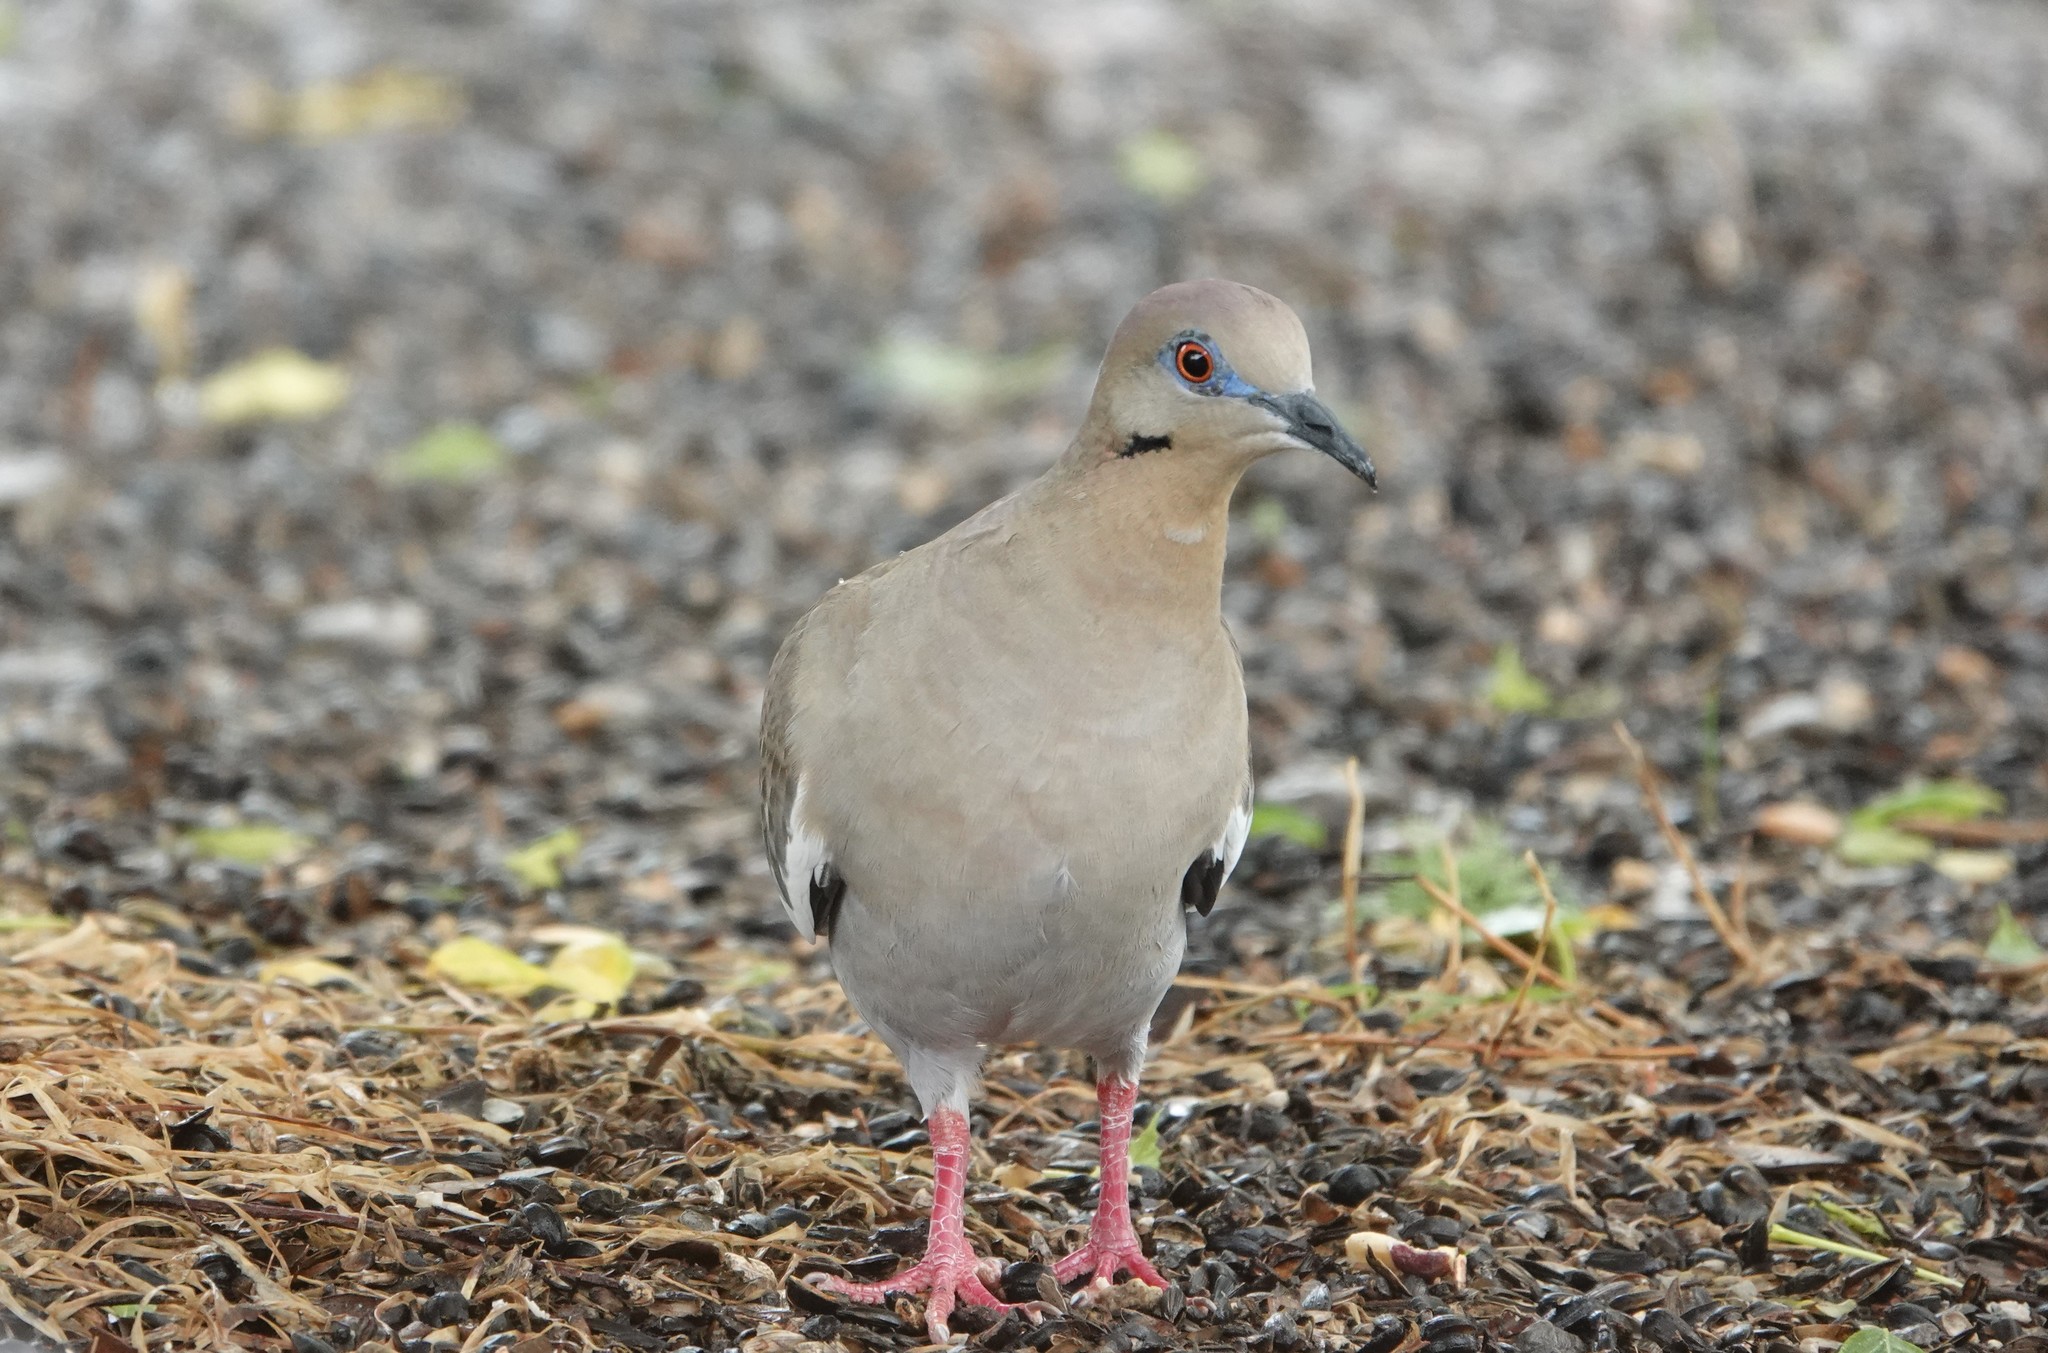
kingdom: Animalia
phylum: Chordata
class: Aves
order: Columbiformes
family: Columbidae
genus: Zenaida
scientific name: Zenaida asiatica
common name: White-winged dove
